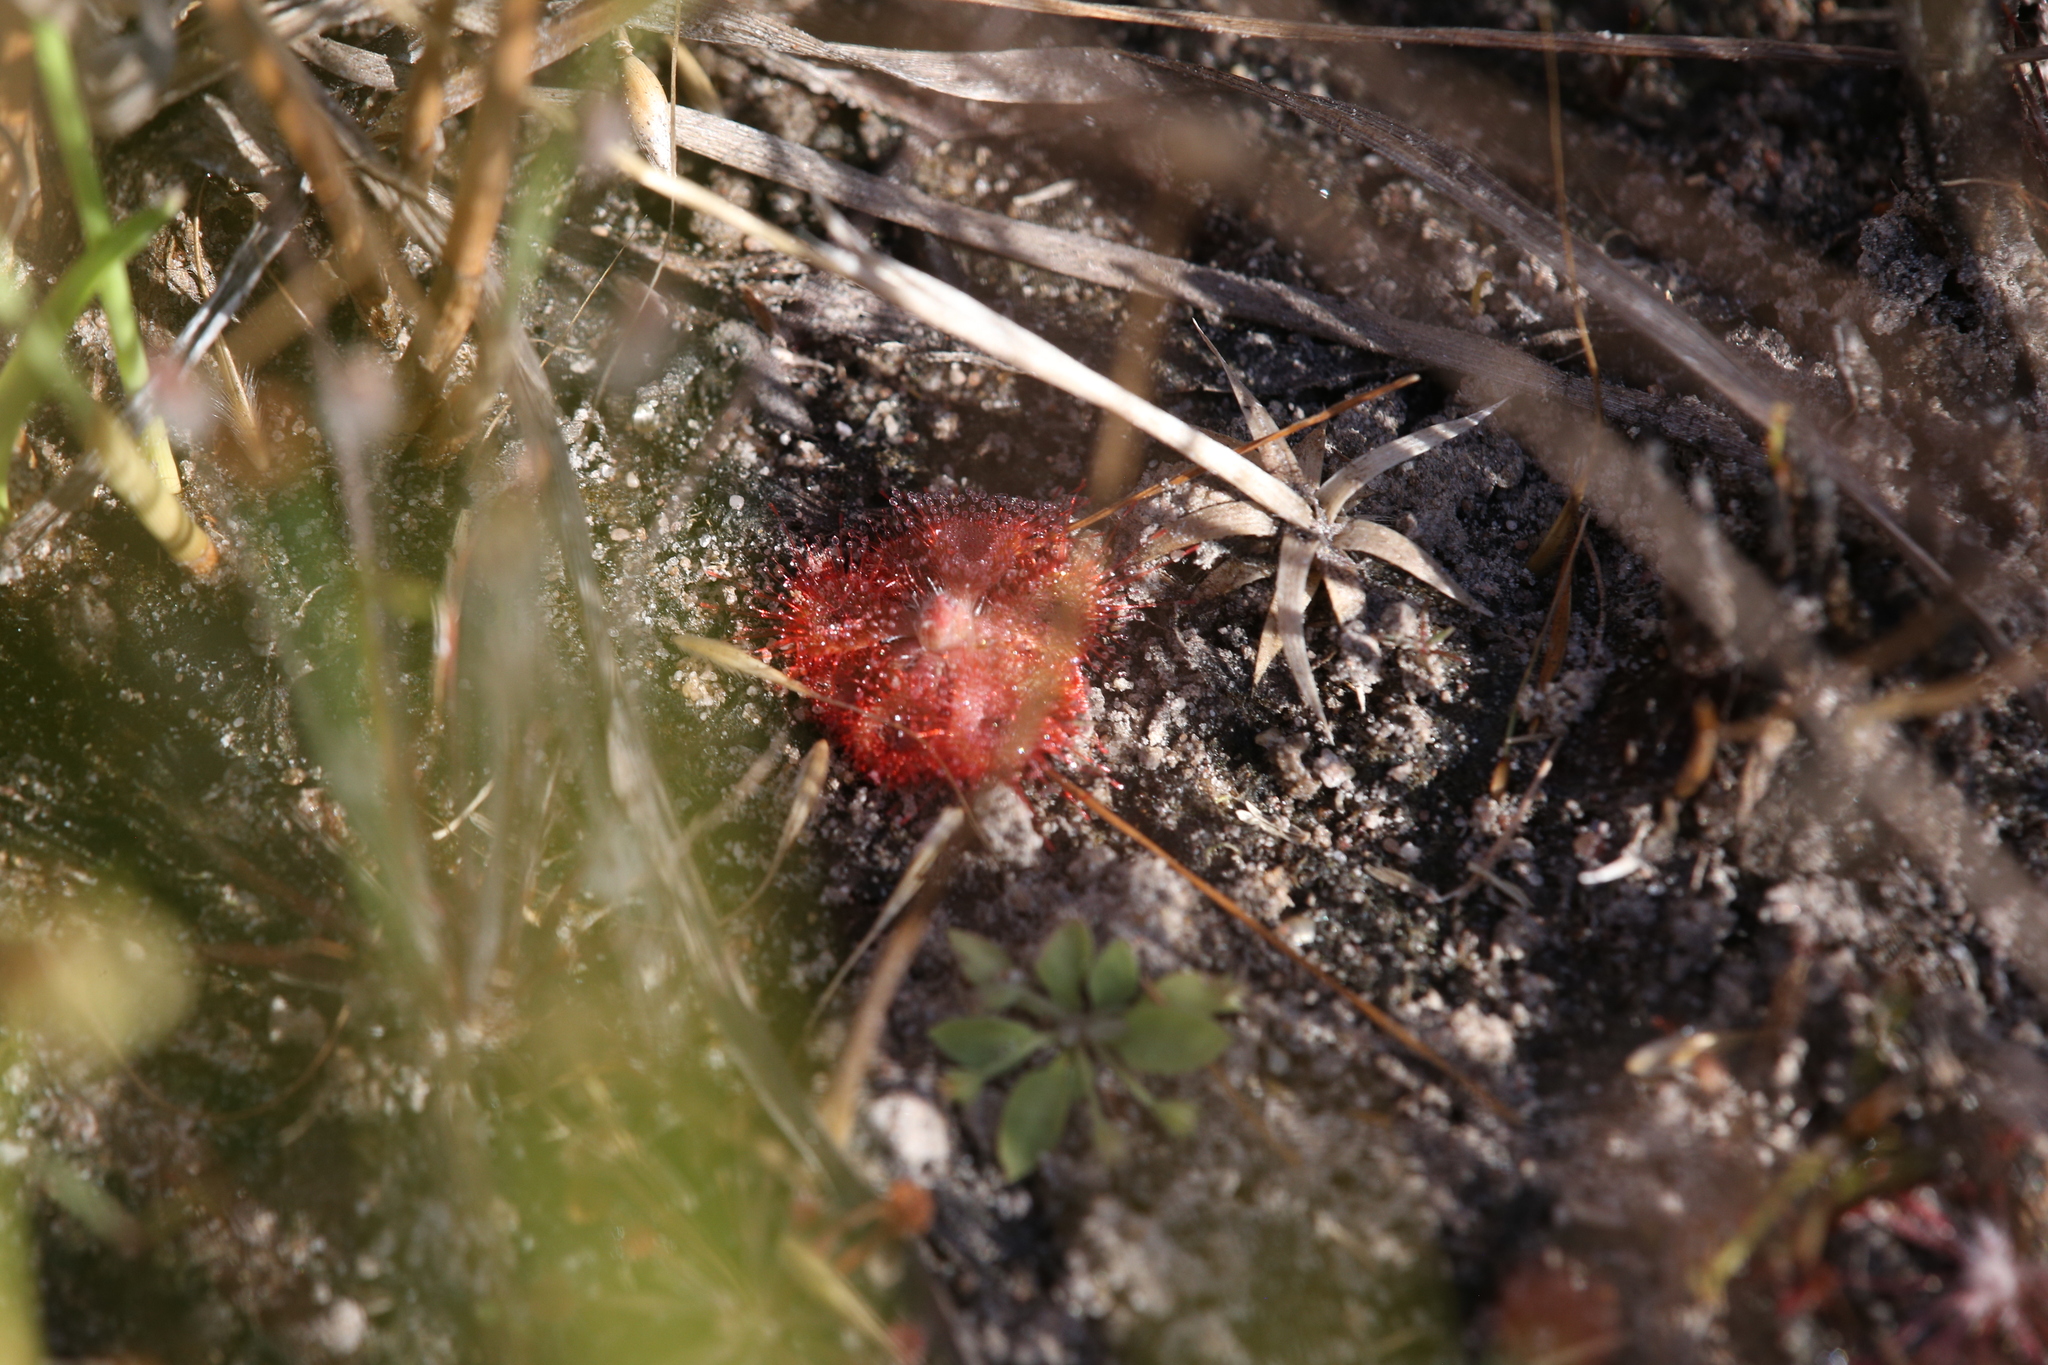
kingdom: Plantae
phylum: Tracheophyta
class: Magnoliopsida
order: Caryophyllales
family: Droseraceae
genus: Drosera
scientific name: Drosera spatulata
